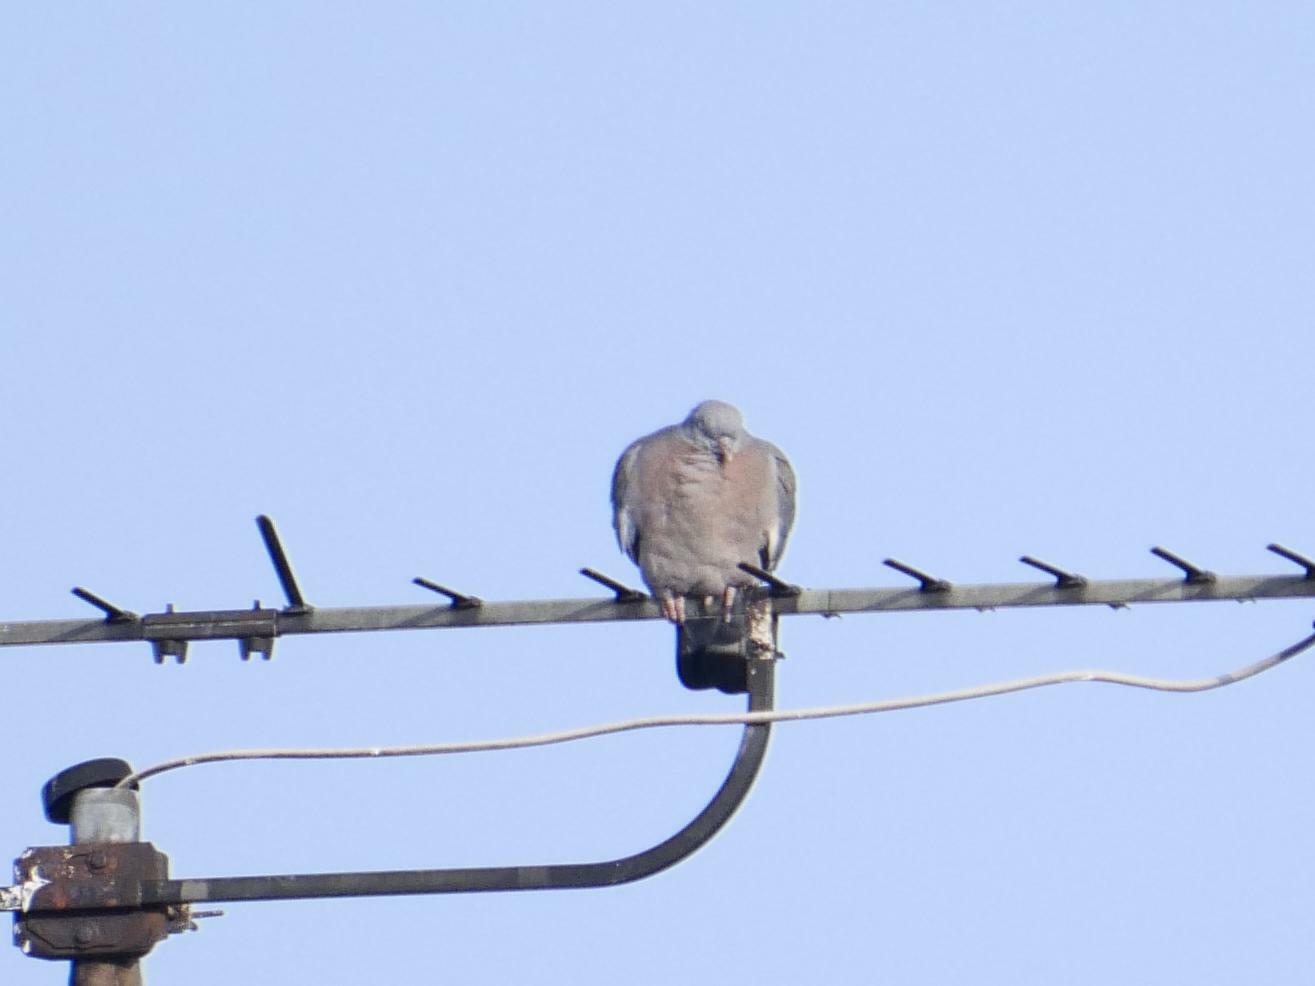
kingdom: Animalia
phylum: Chordata
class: Aves
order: Columbiformes
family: Columbidae
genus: Columba
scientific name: Columba palumbus
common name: Common wood pigeon
